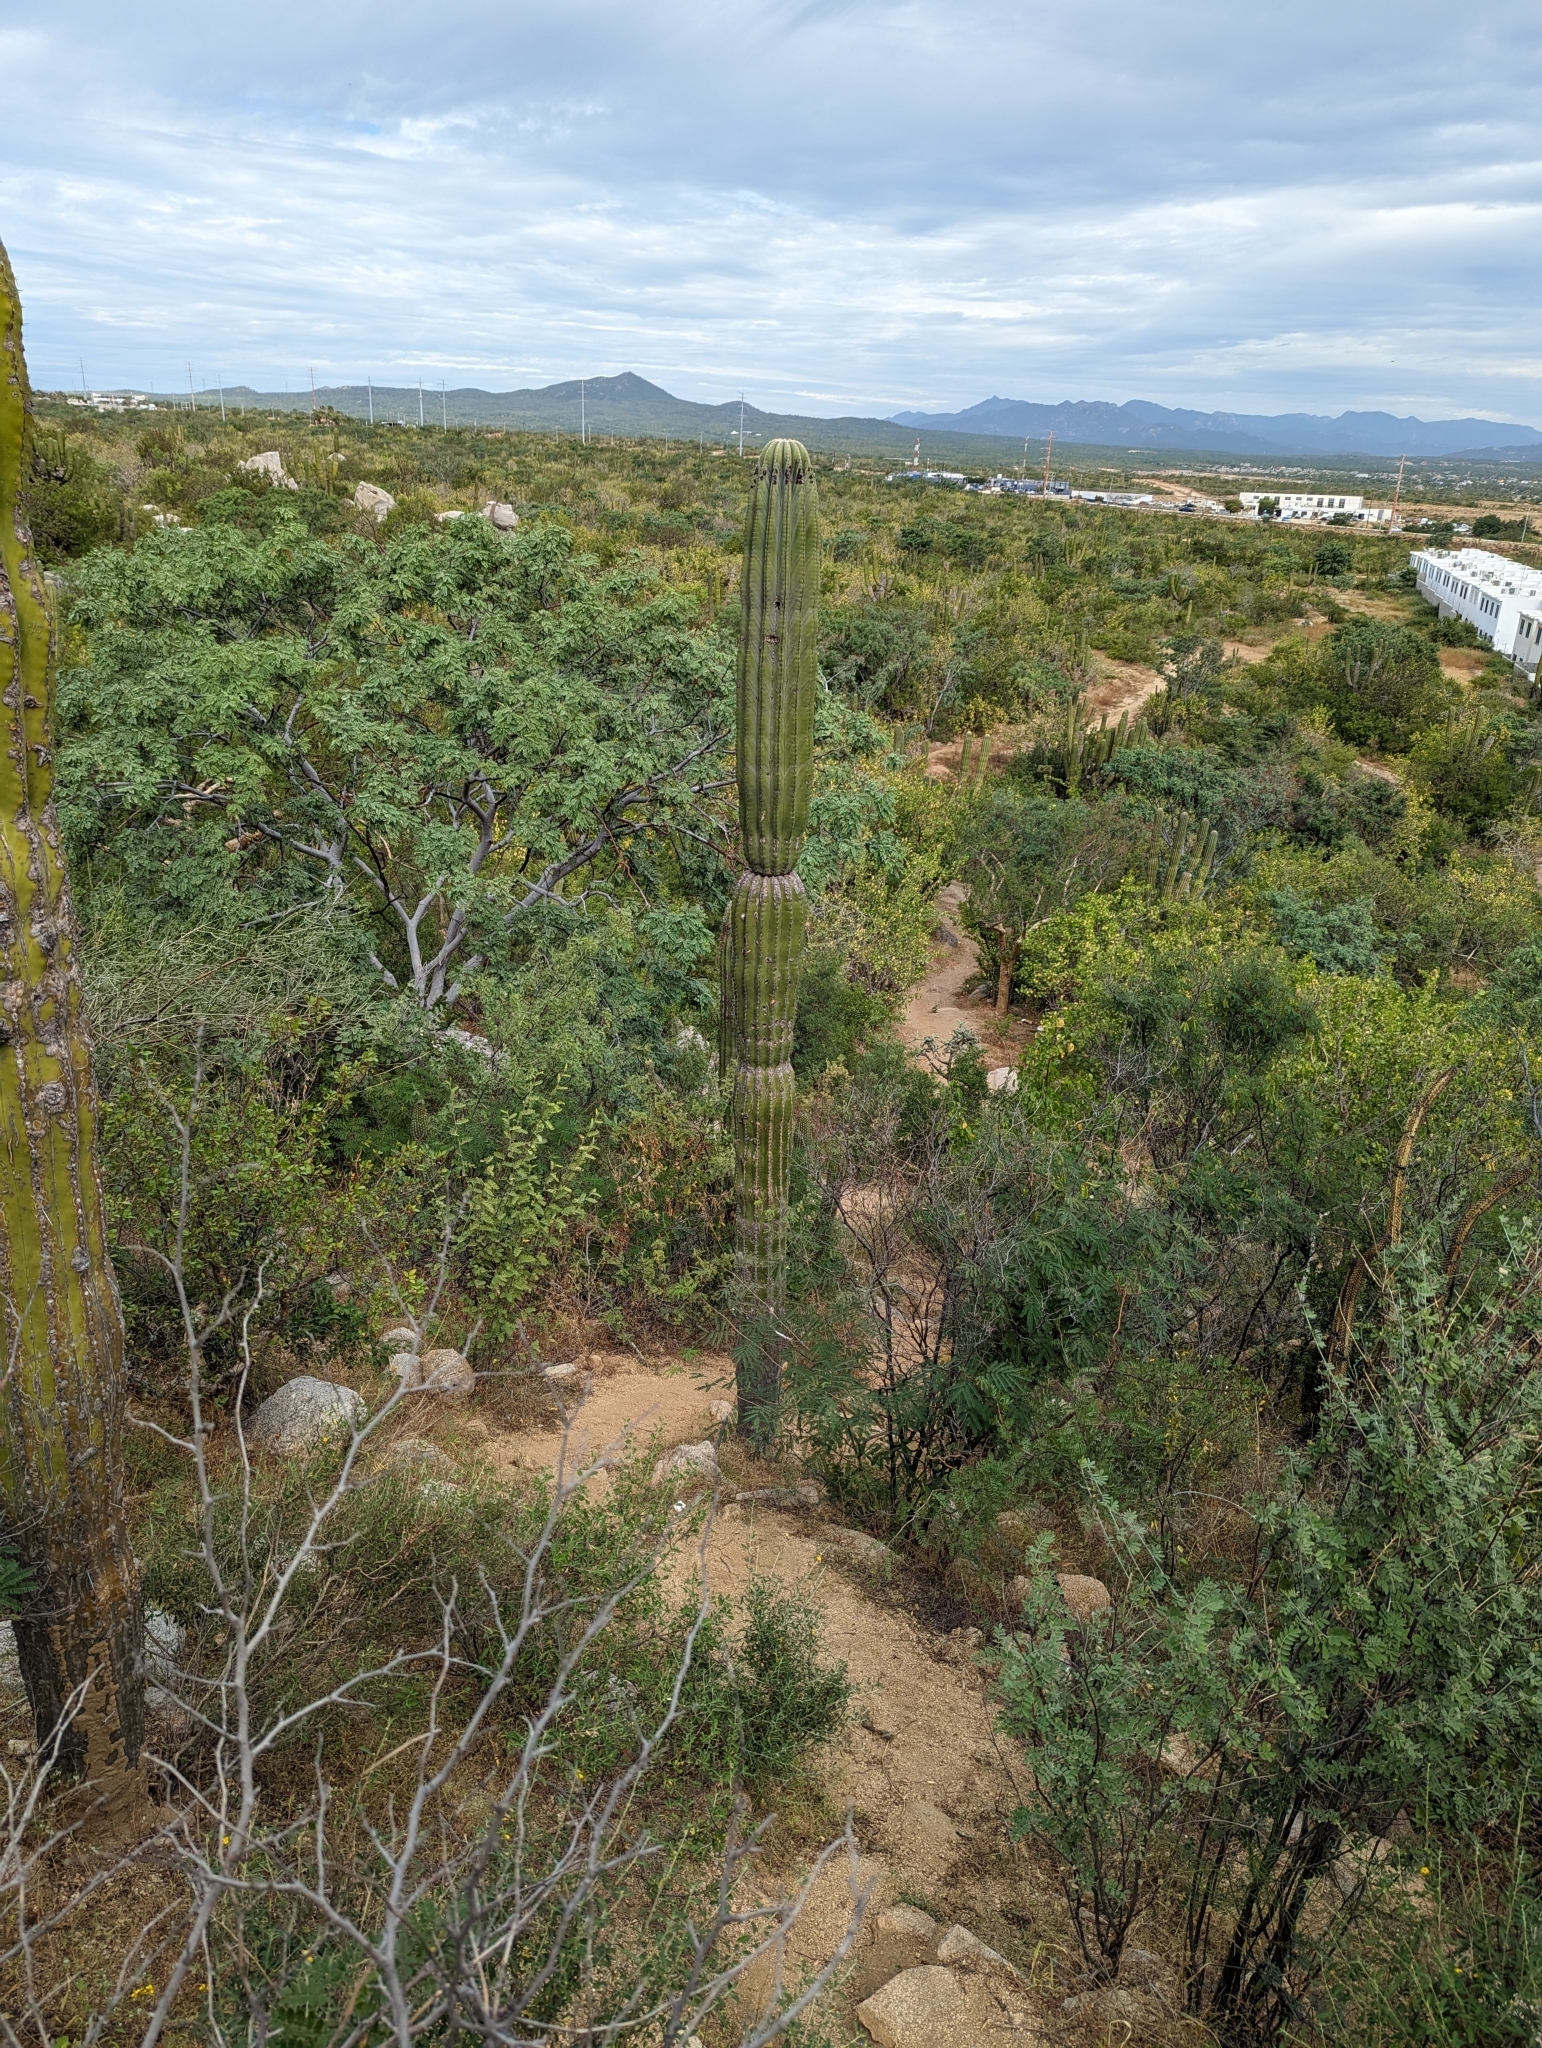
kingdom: Plantae
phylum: Tracheophyta
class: Magnoliopsida
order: Caryophyllales
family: Cactaceae
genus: Pachycereus
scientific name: Pachycereus pringlei
